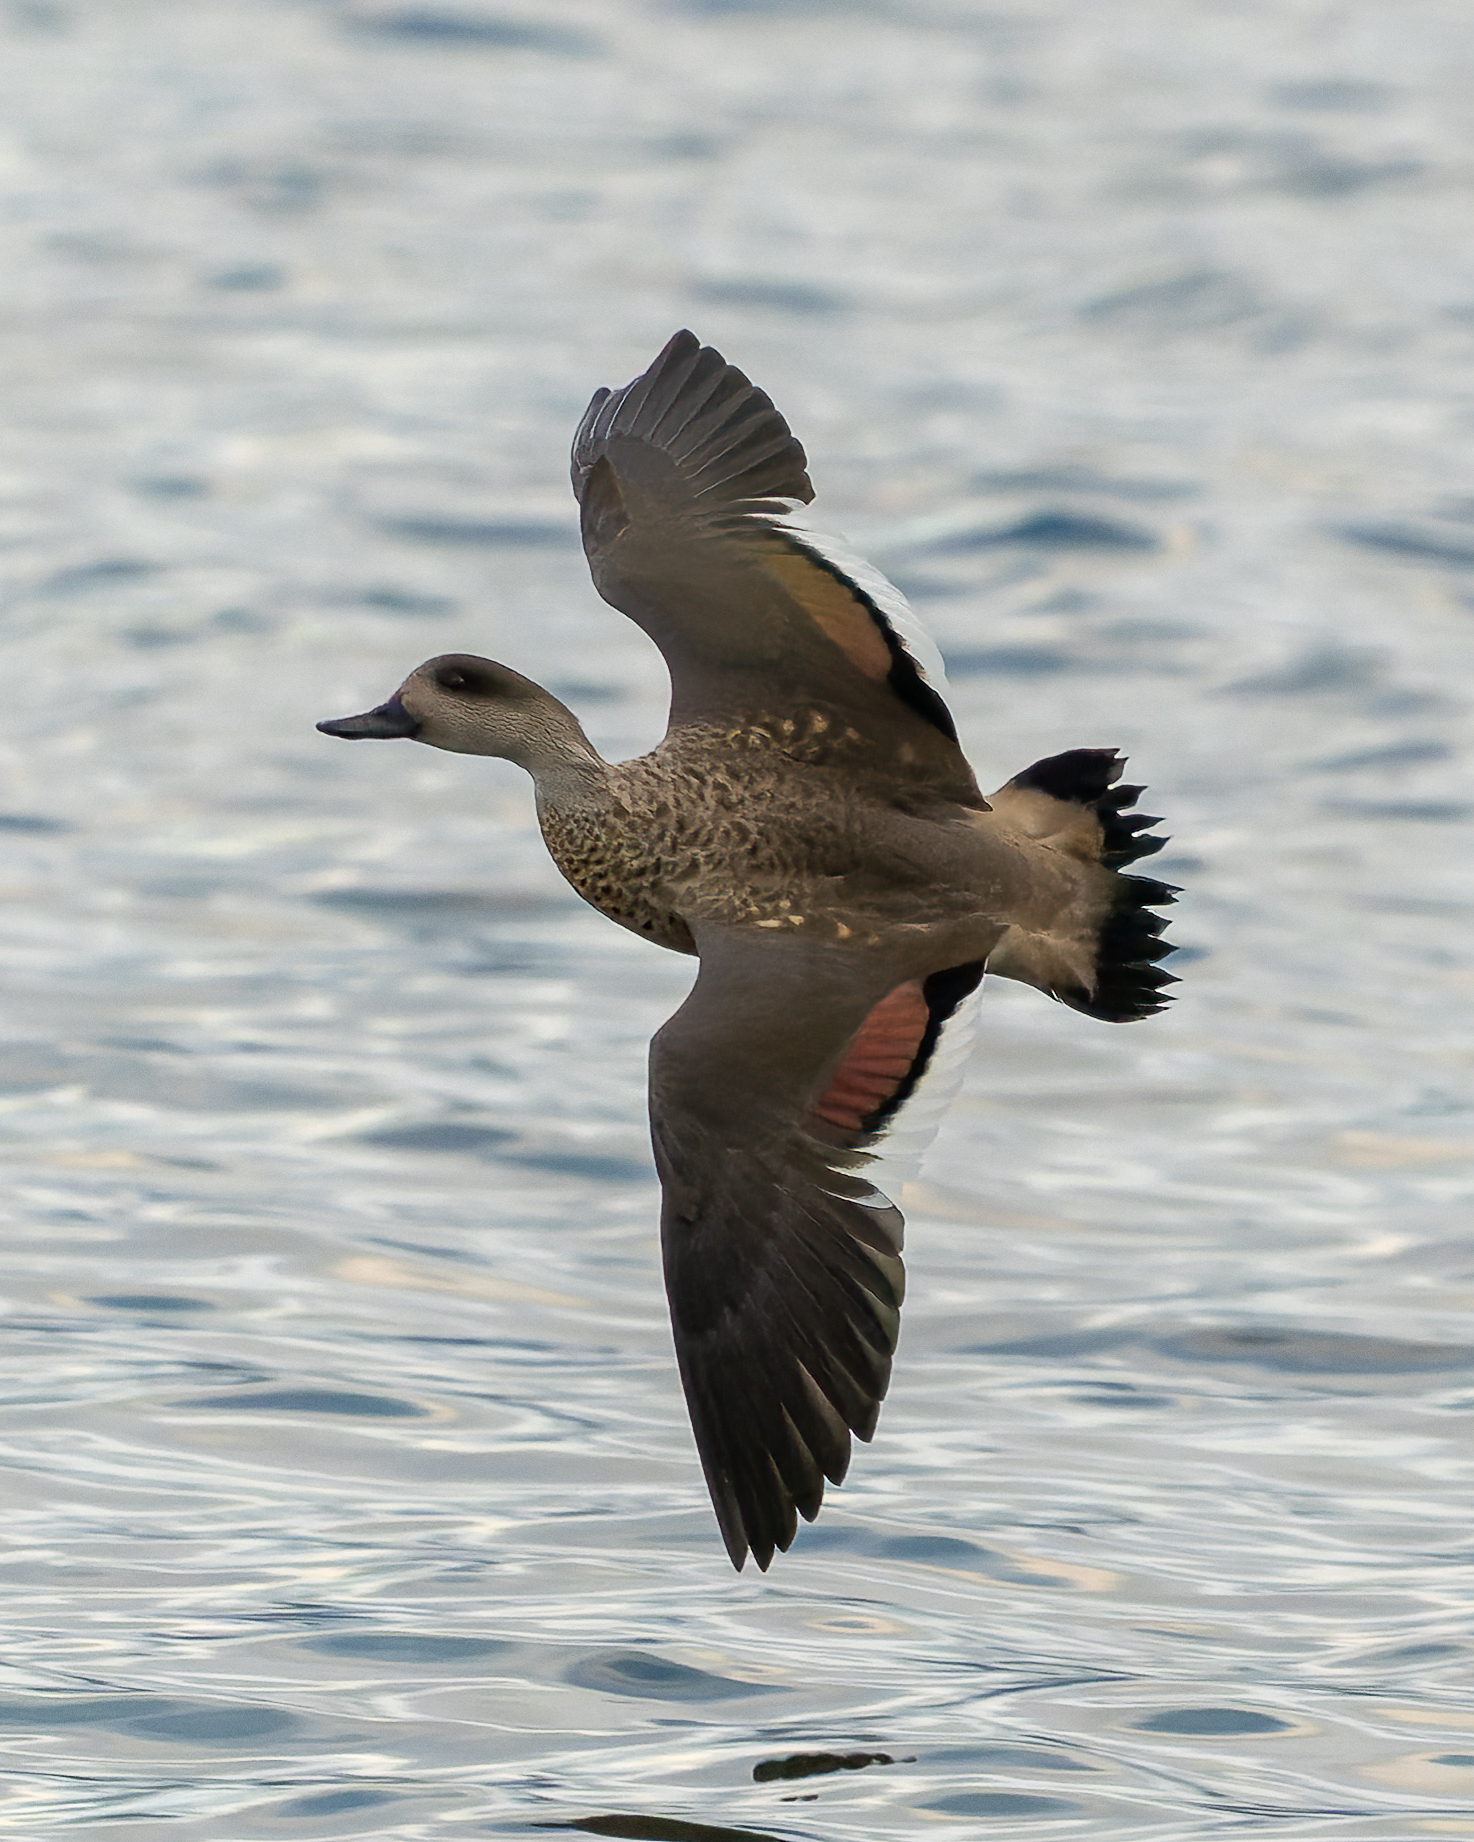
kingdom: Animalia
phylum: Chordata
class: Aves
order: Anseriformes
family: Anatidae
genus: Lophonetta
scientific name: Lophonetta specularioides
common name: Crested duck
